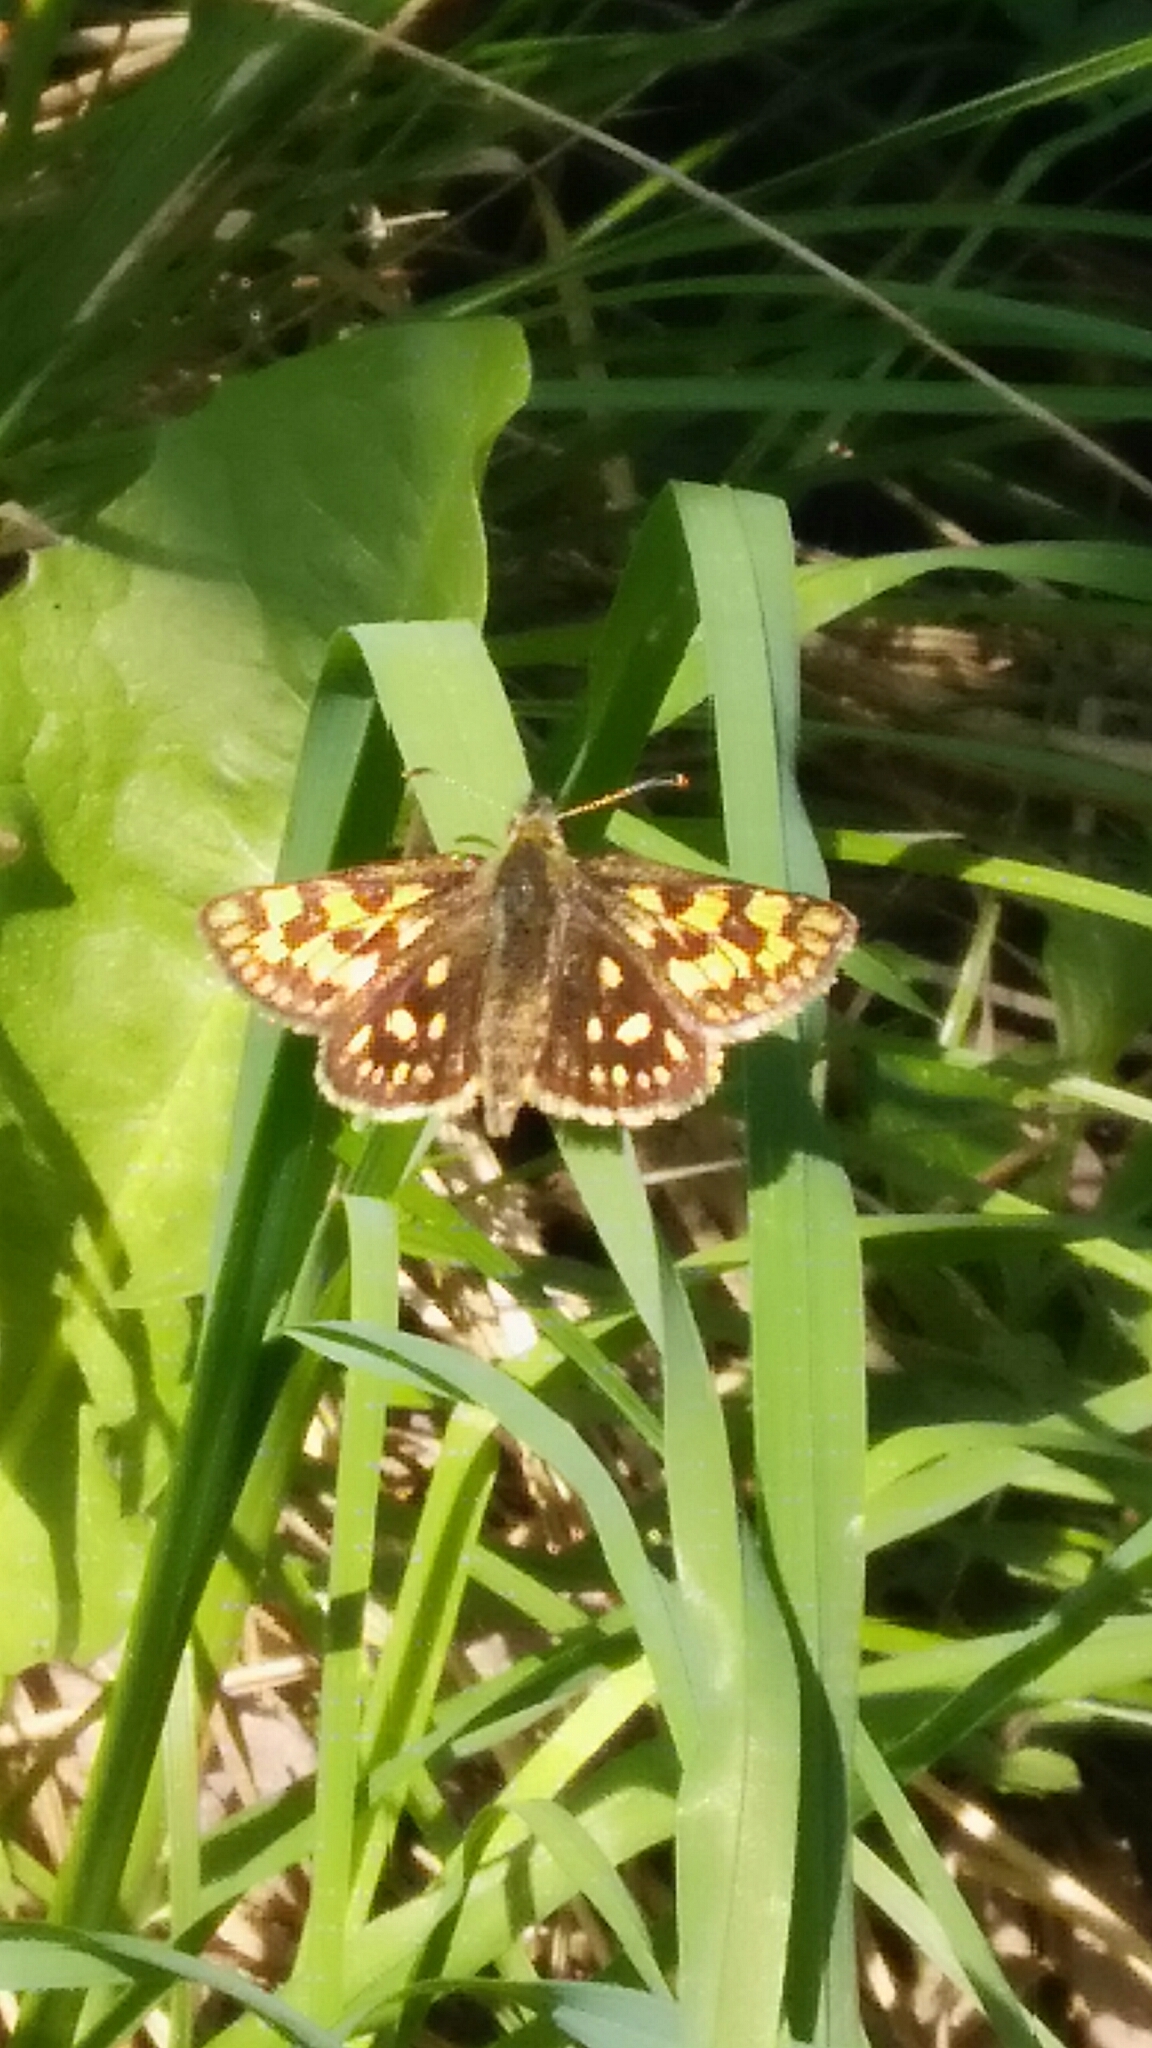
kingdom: Animalia
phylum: Arthropoda
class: Insecta
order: Lepidoptera
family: Hesperiidae
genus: Carterocephalus
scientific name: Carterocephalus palaemon
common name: Chequered skipper
